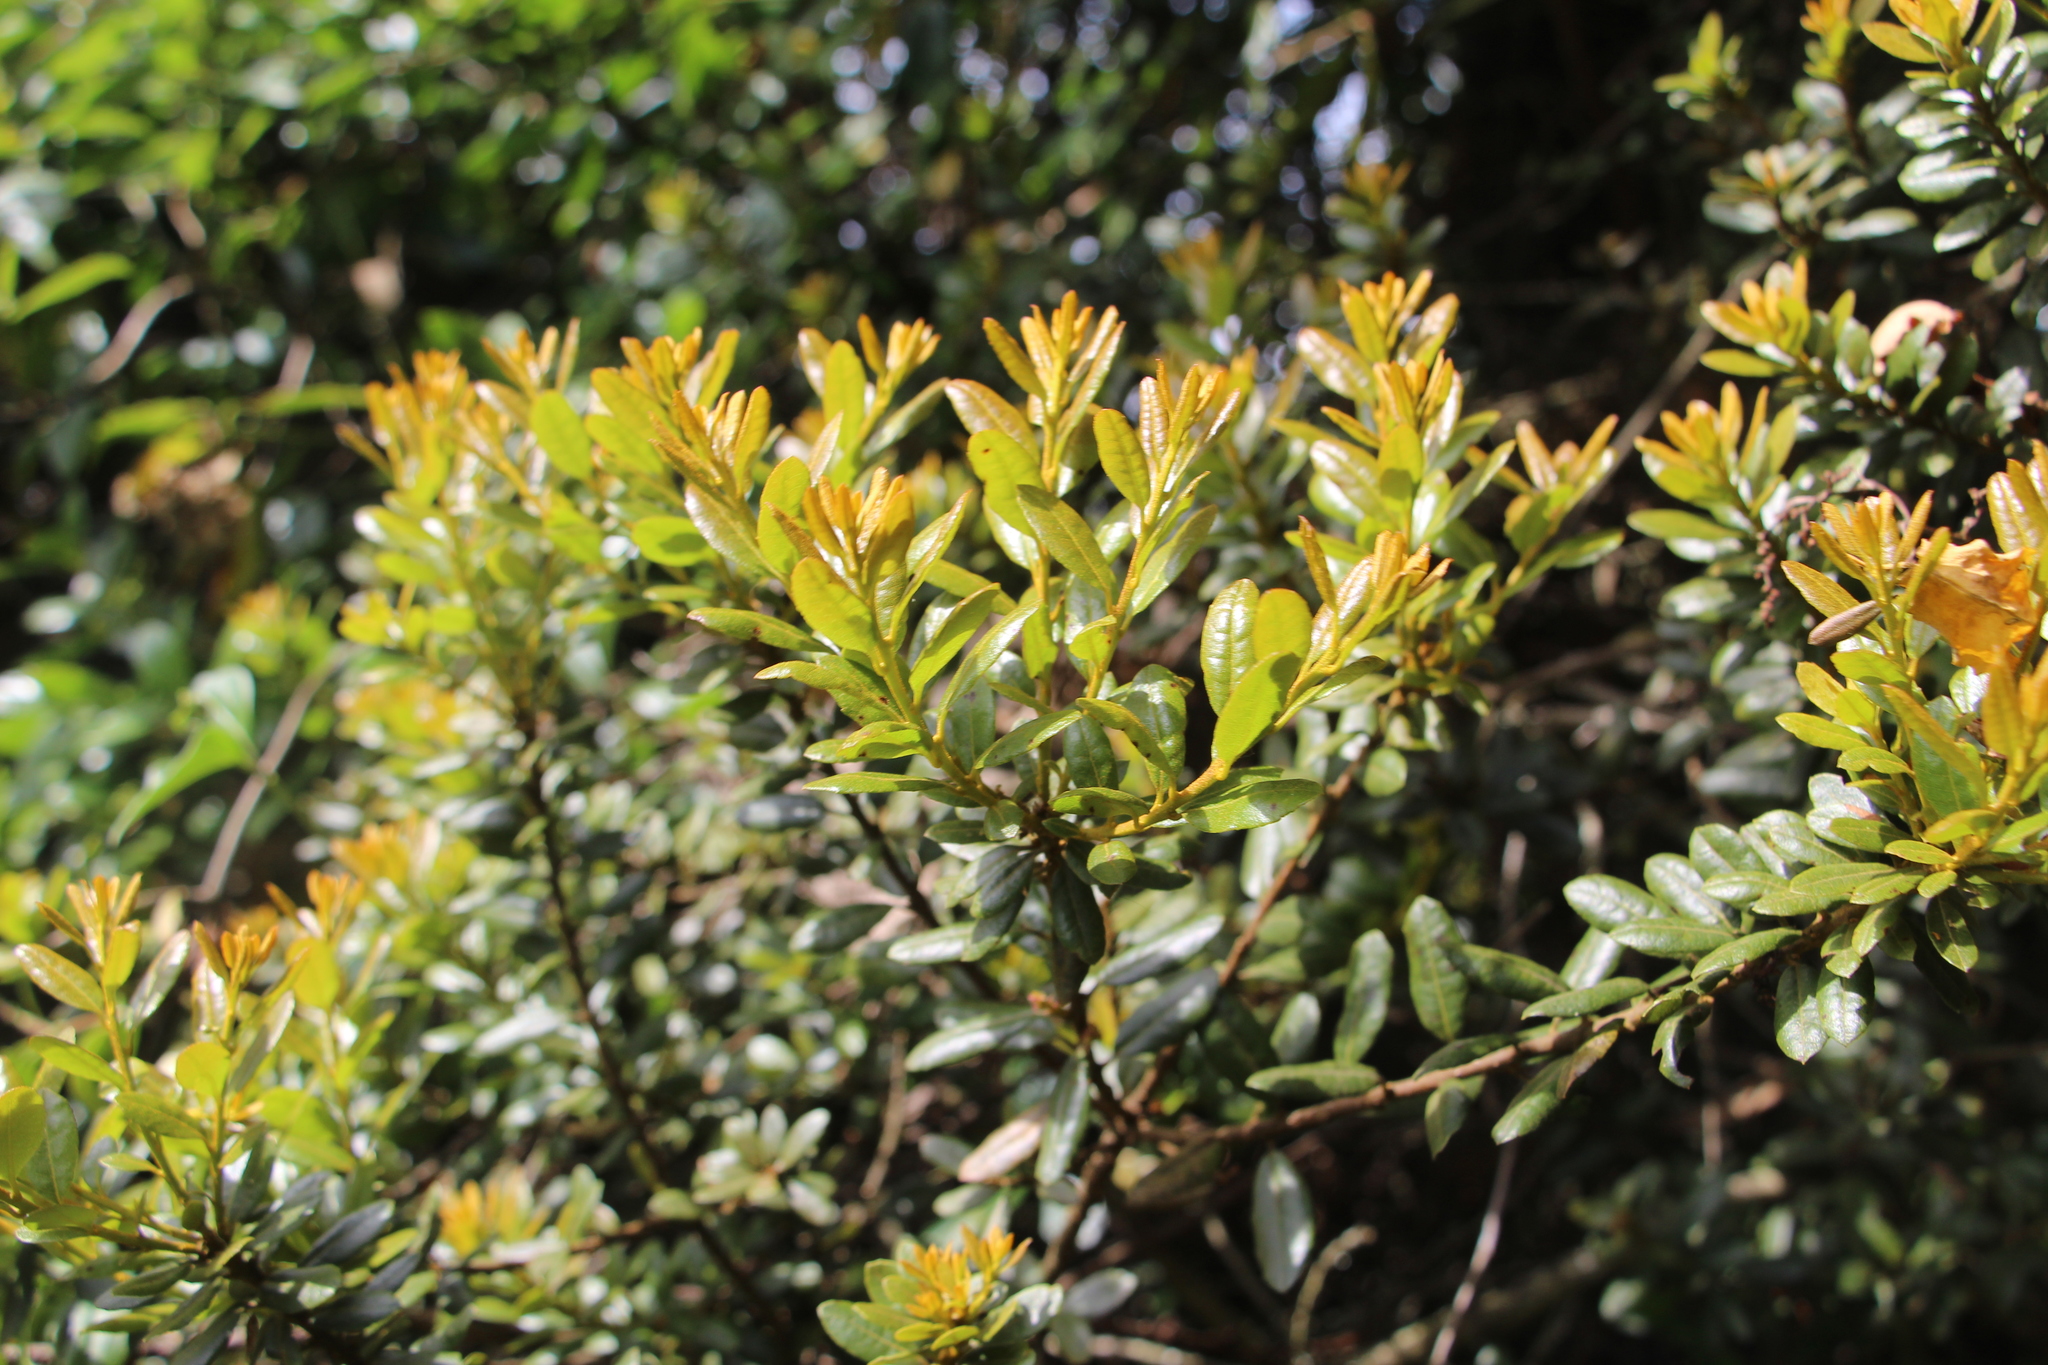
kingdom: Plantae
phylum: Tracheophyta
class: Magnoliopsida
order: Fagales
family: Myricaceae
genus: Morella
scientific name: Morella parvifolia
